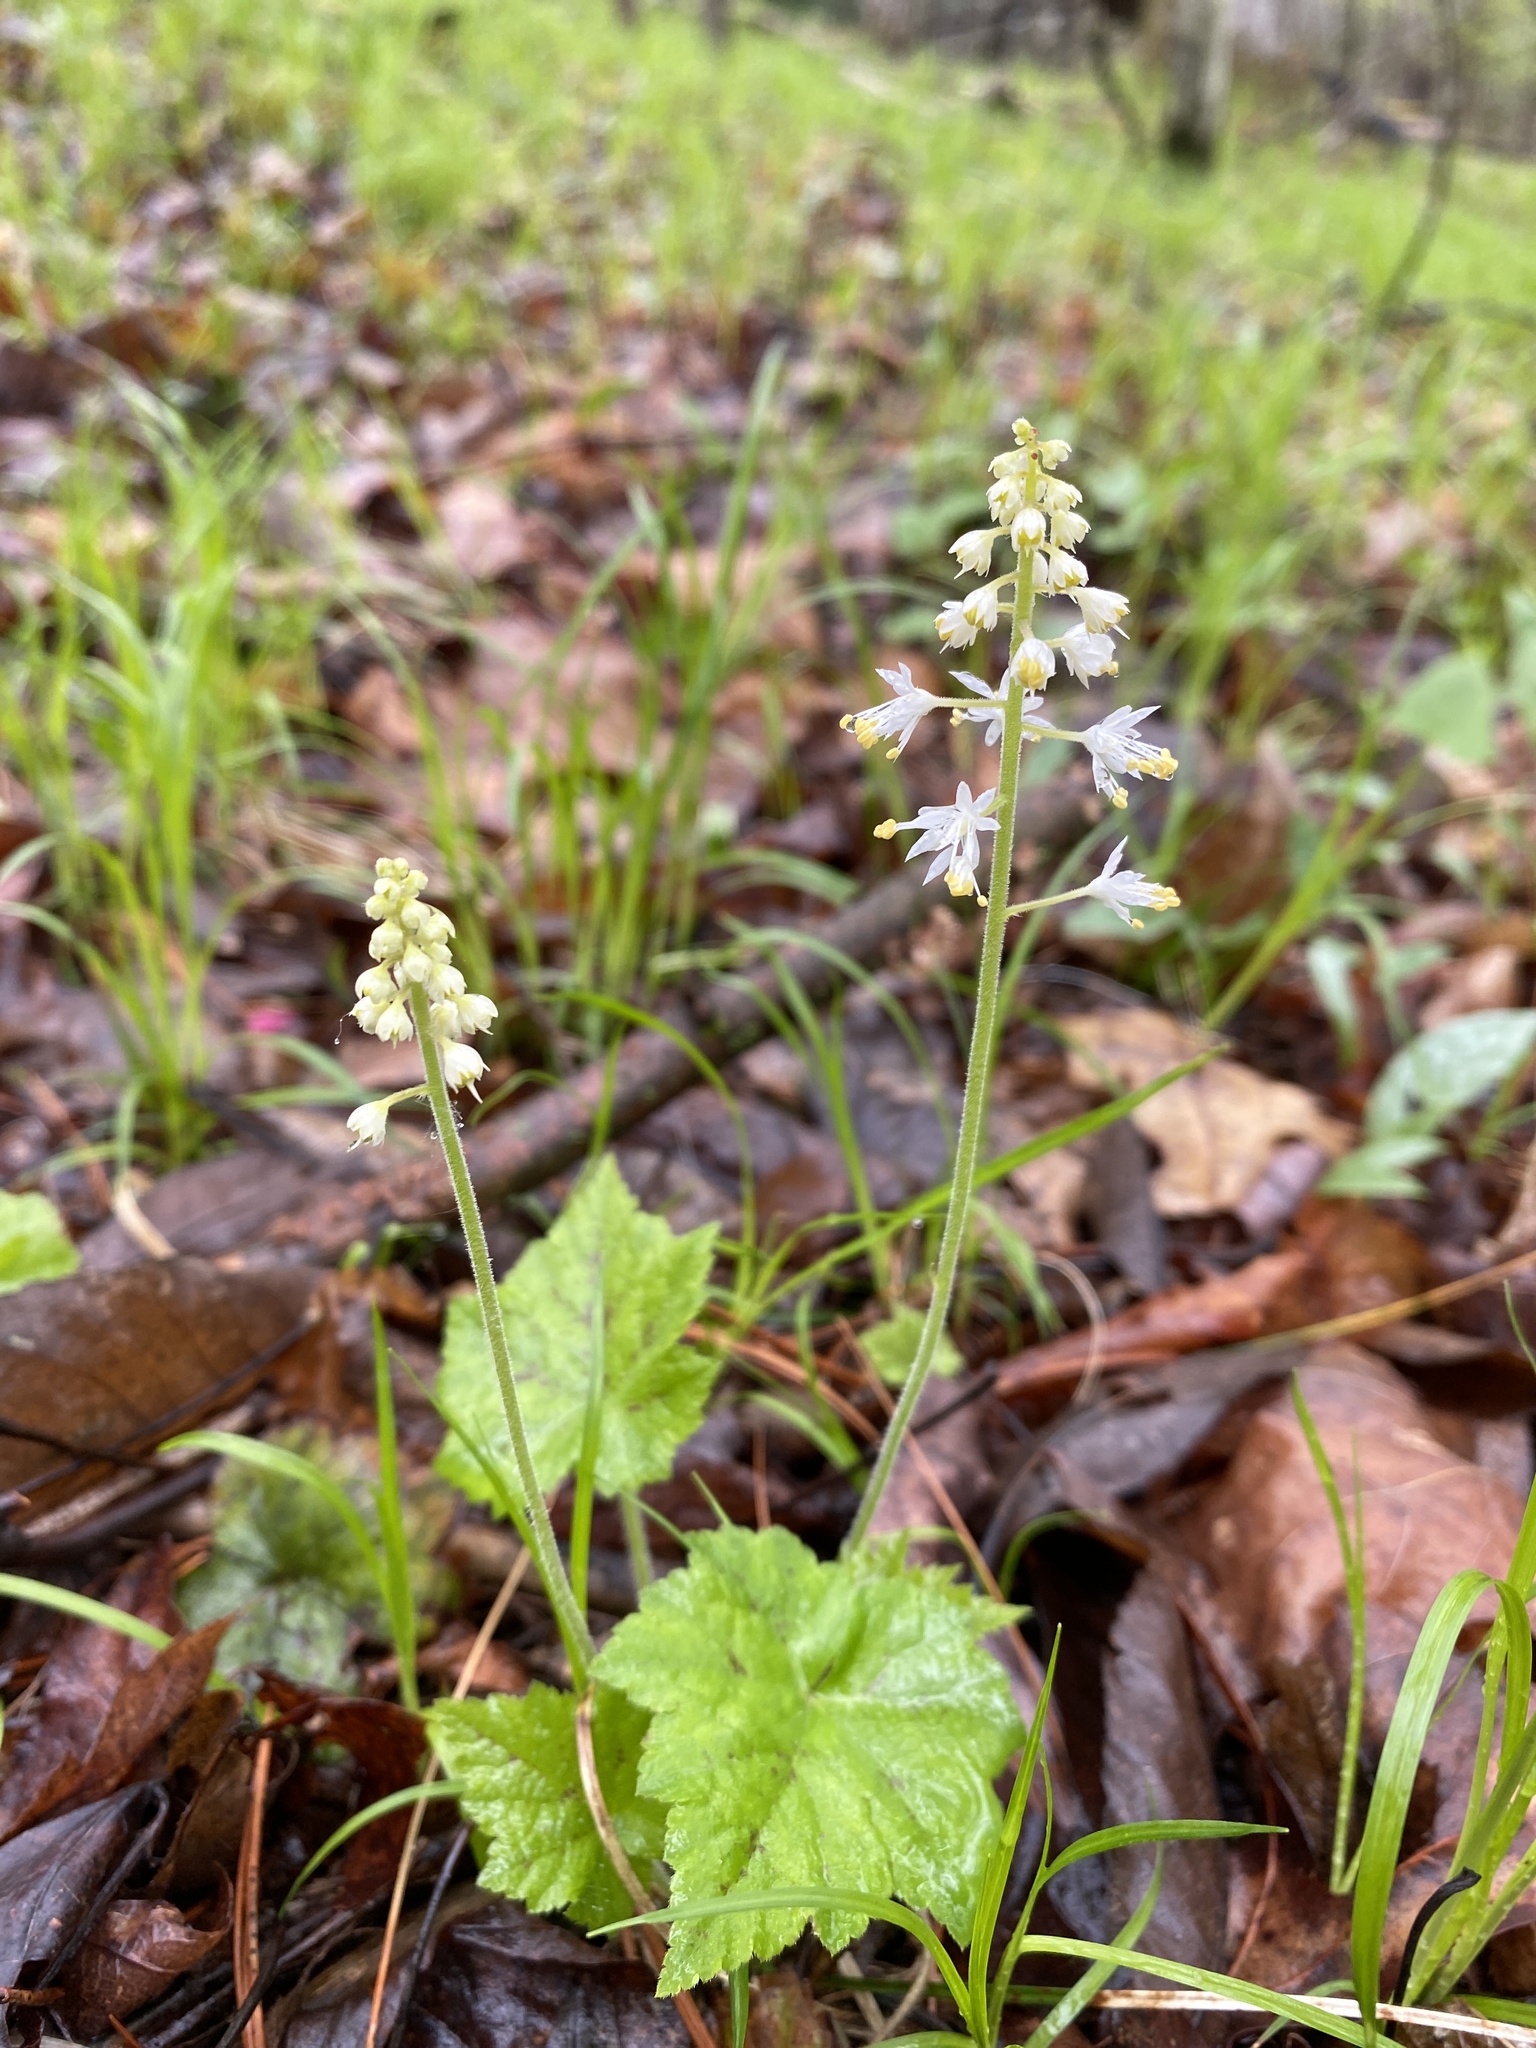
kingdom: Plantae
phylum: Tracheophyta
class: Magnoliopsida
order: Saxifragales
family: Saxifragaceae
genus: Tiarella
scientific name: Tiarella stolonifera
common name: Stoloniferous foamflower
